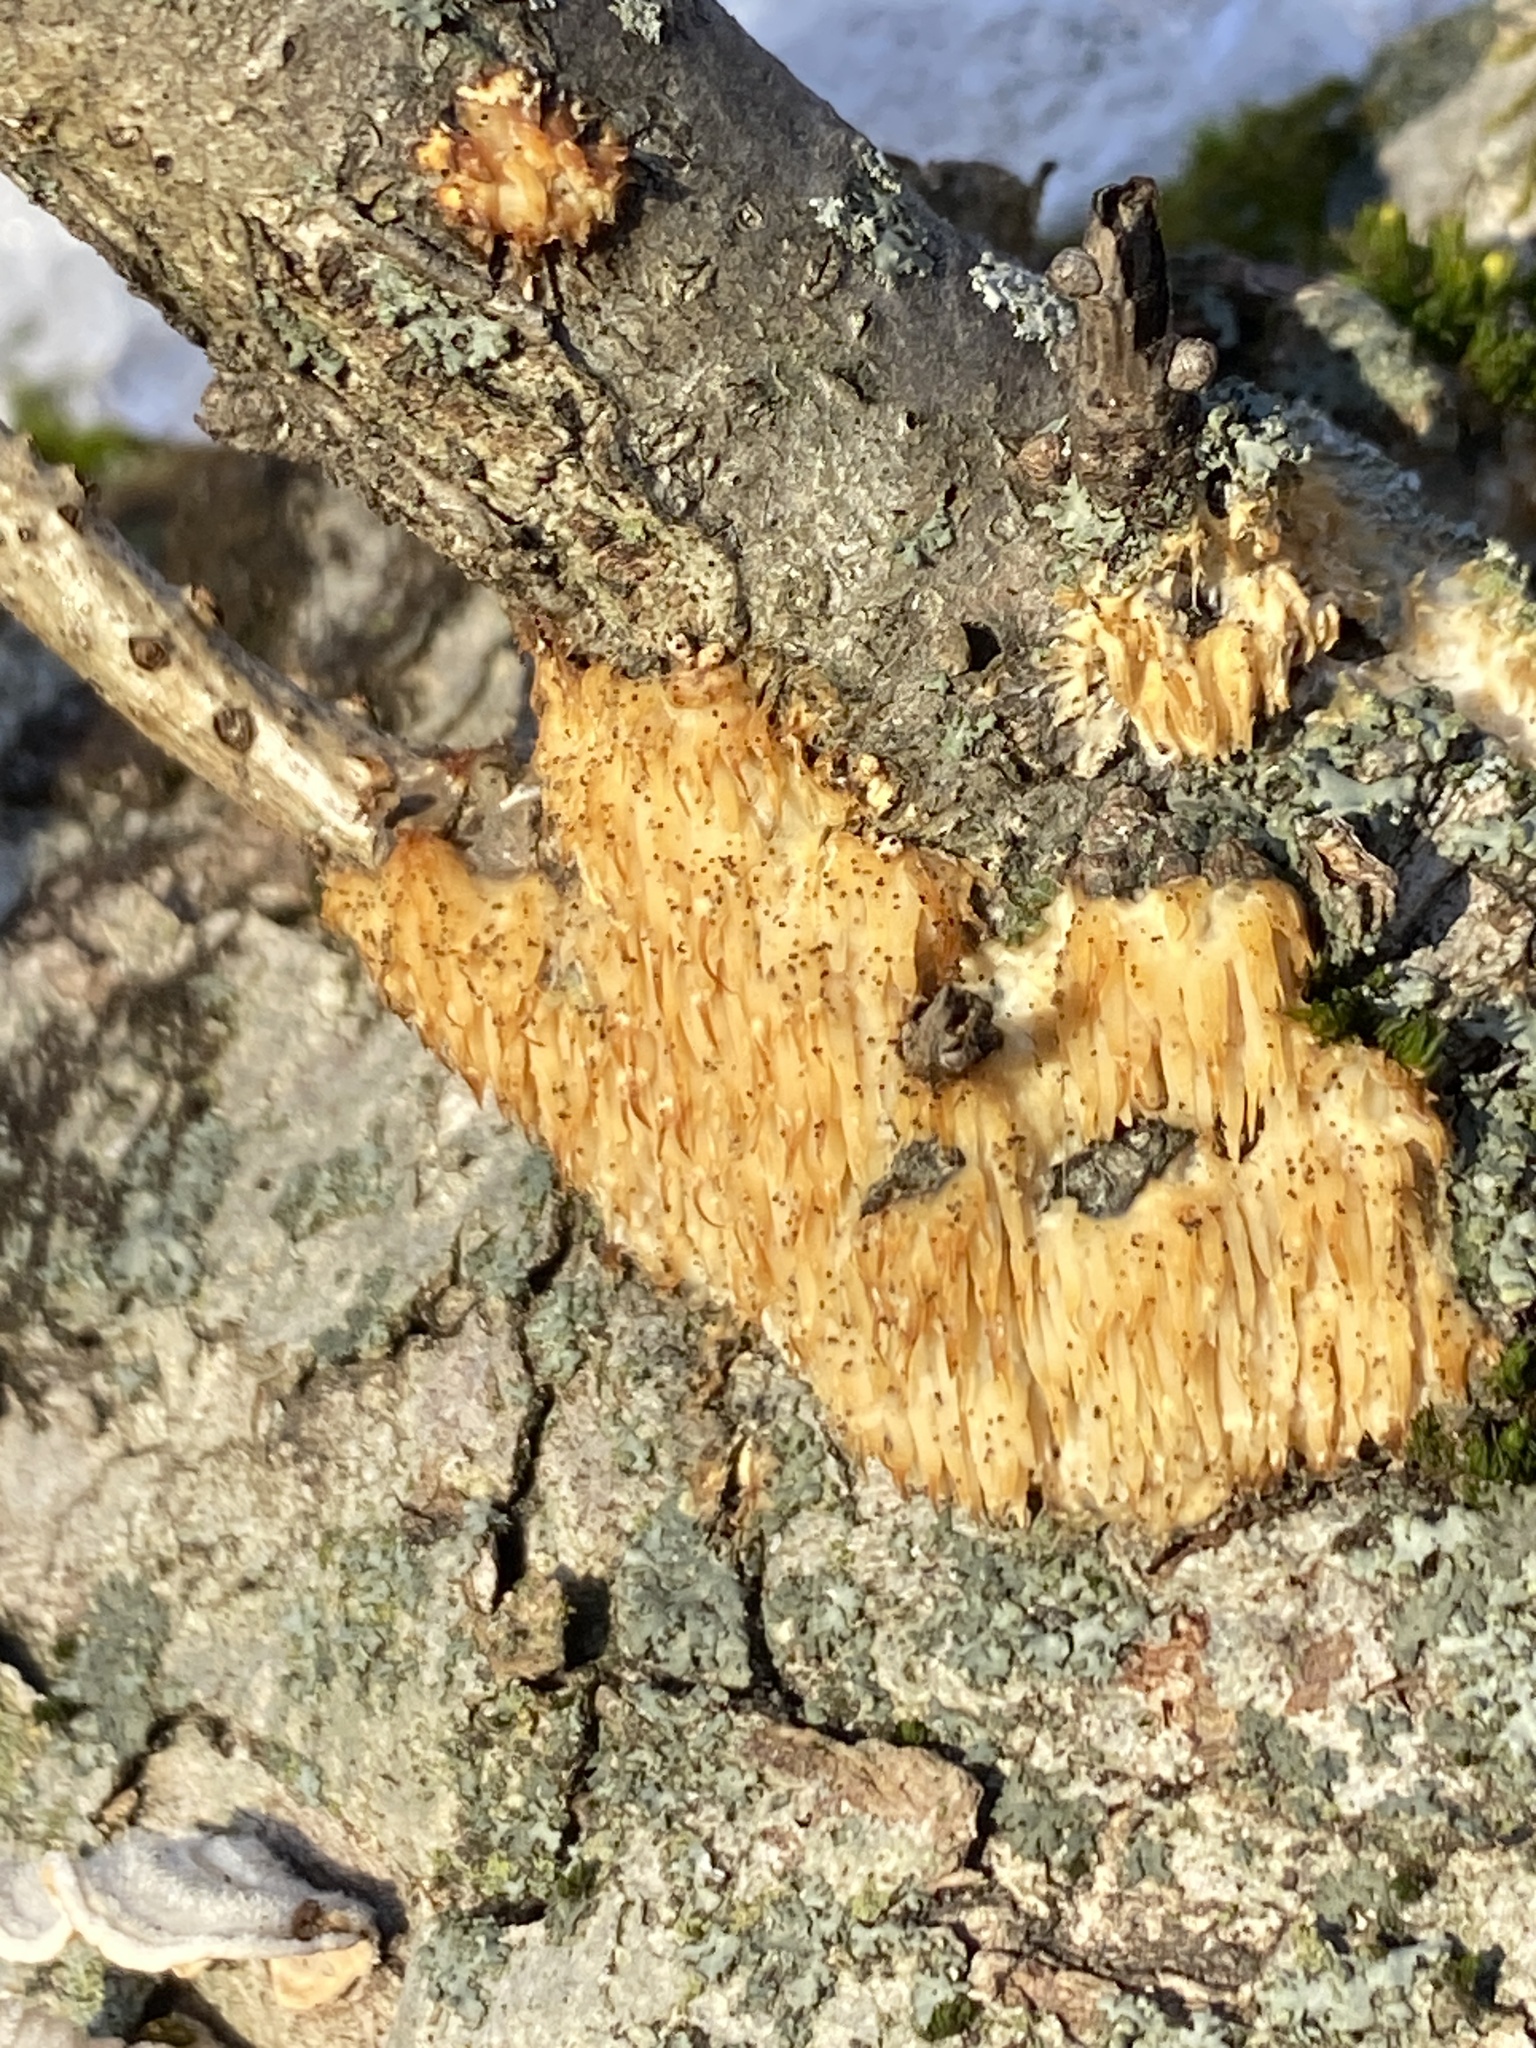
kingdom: Fungi
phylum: Basidiomycota
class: Agaricomycetes
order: Agaricales
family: Radulomycetaceae
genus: Radulomyces
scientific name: Radulomyces copelandii
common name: Asian beauty
